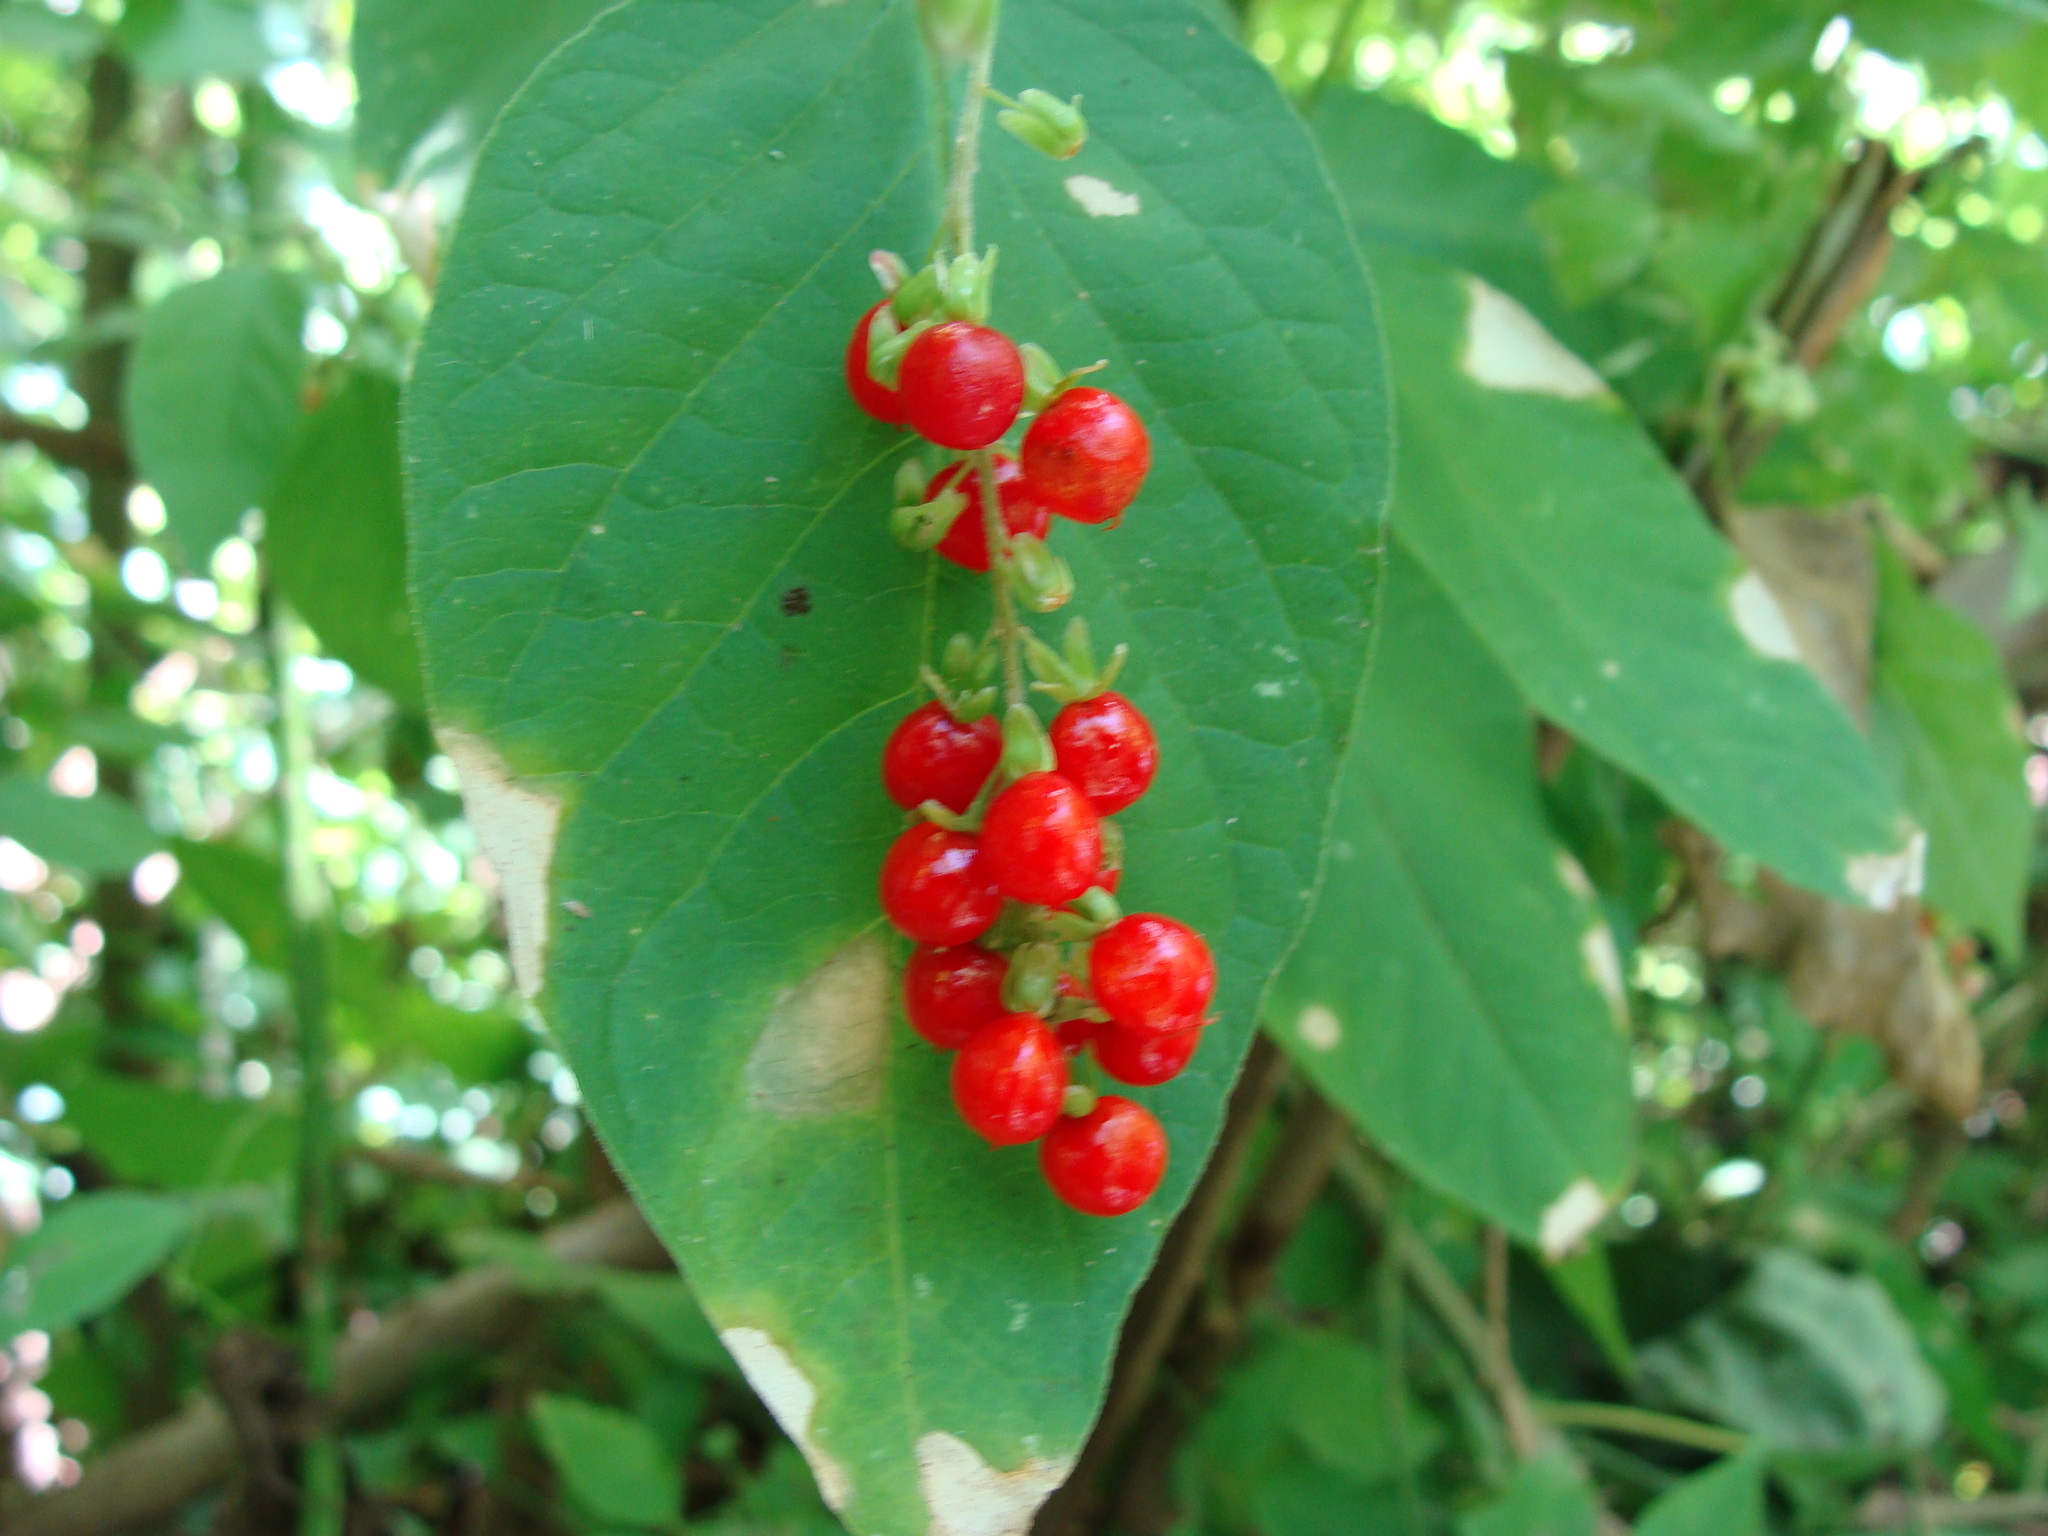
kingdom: Plantae
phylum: Tracheophyta
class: Magnoliopsida
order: Caryophyllales
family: Phytolaccaceae
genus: Rivina
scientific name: Rivina humilis
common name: Rougeplant
